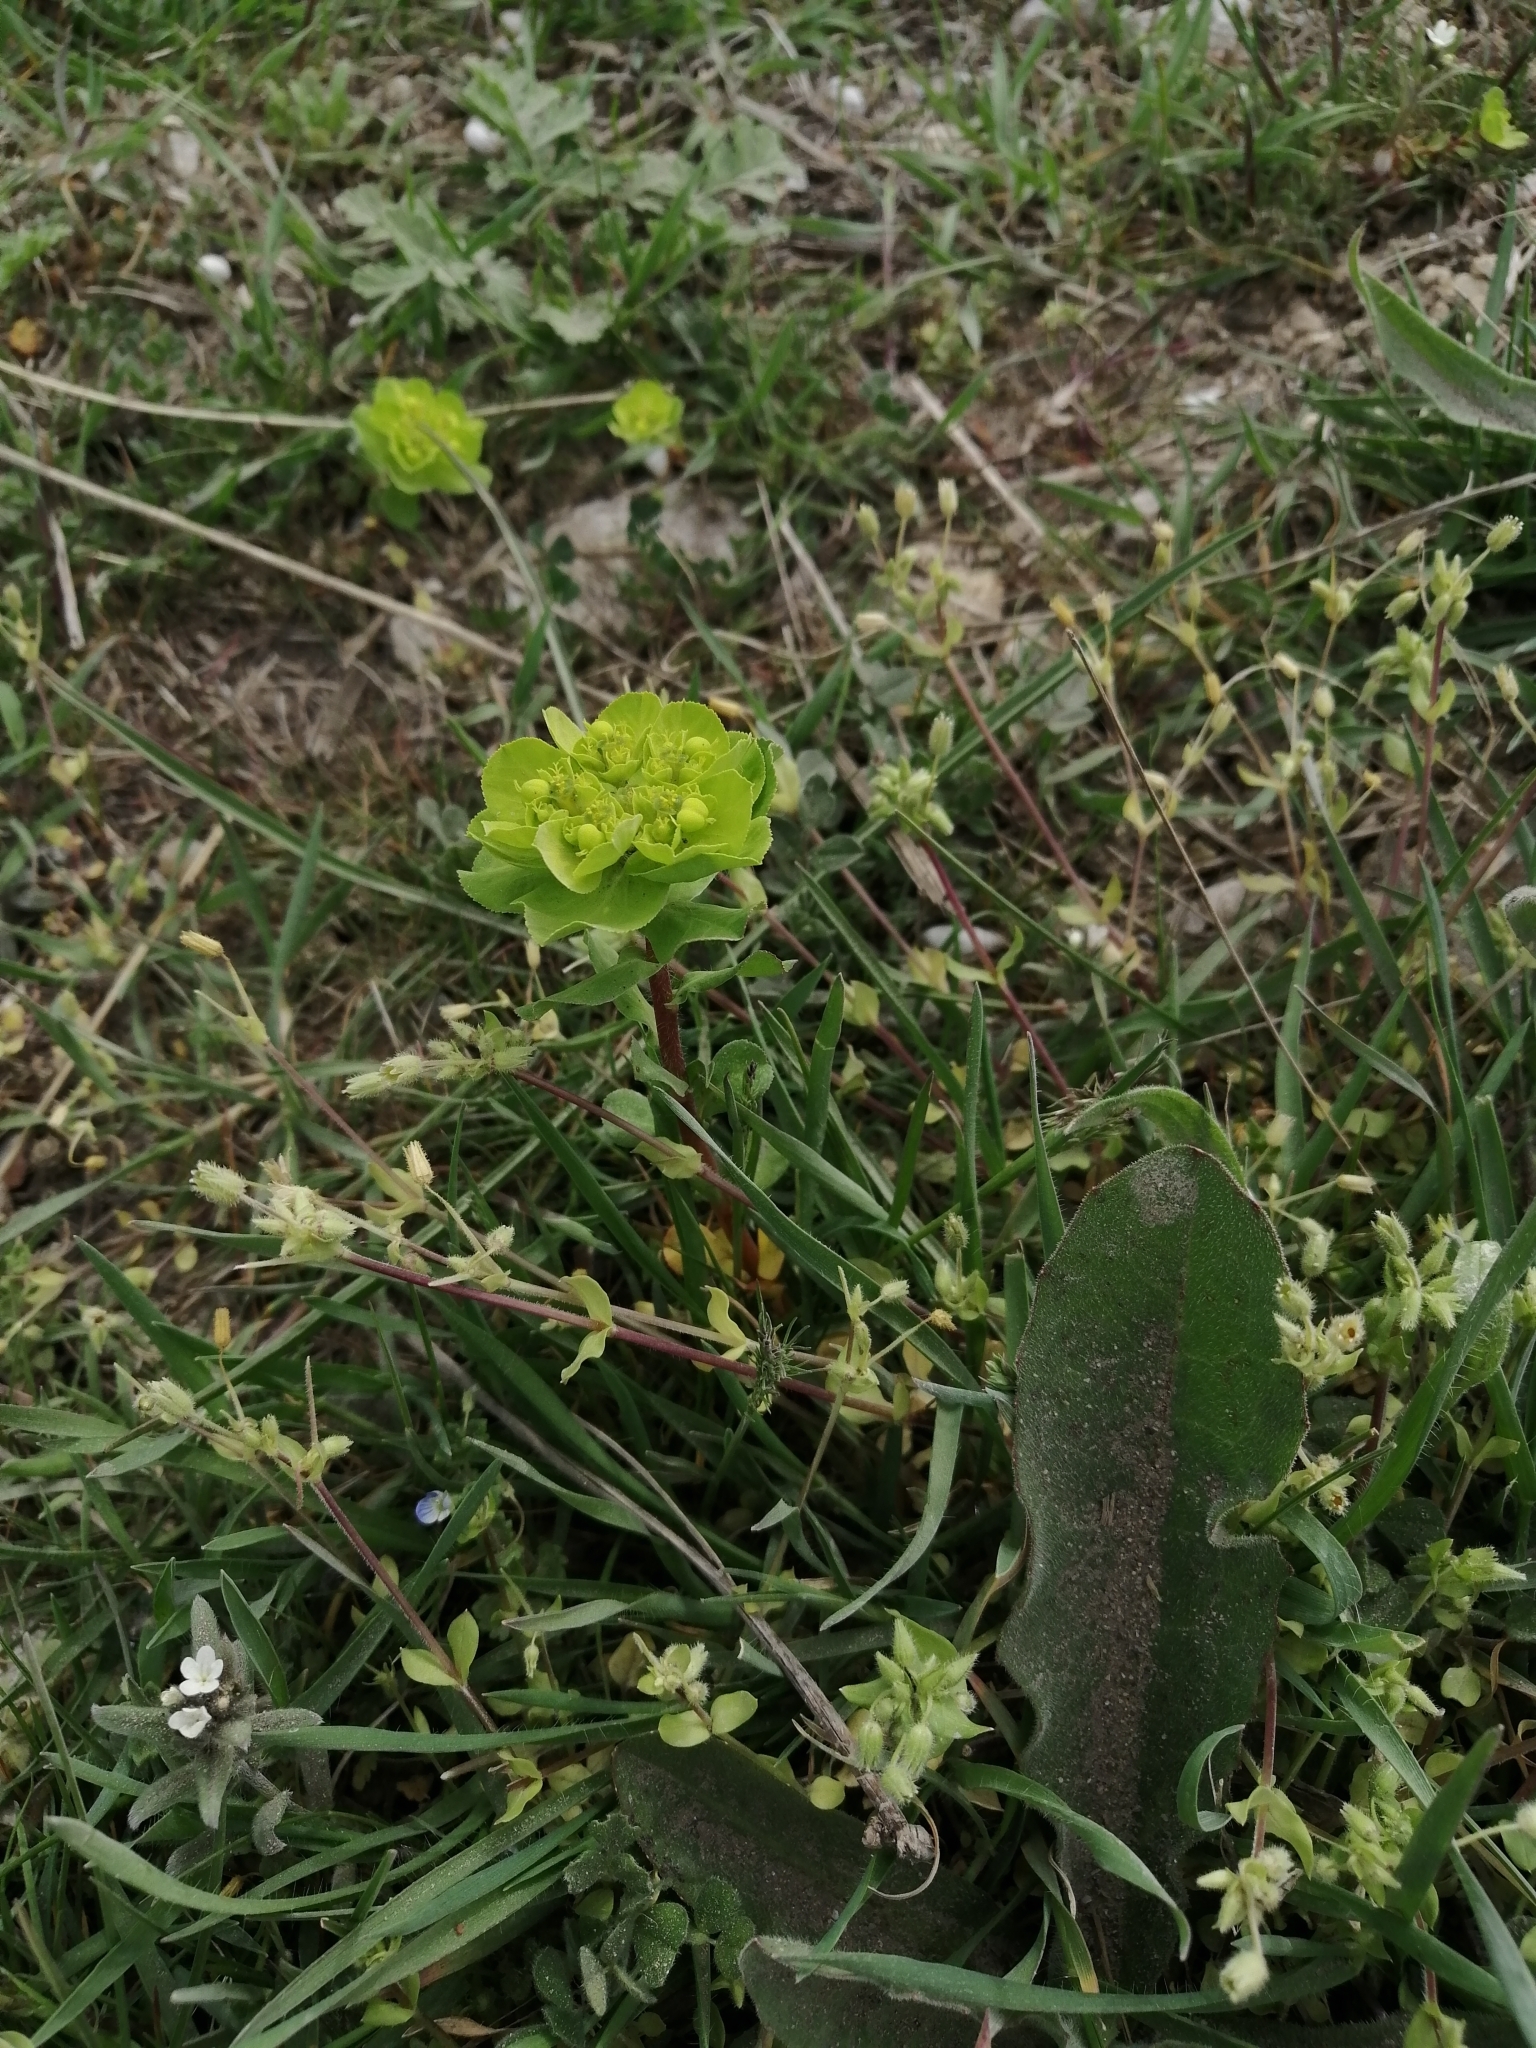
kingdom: Plantae
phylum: Tracheophyta
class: Magnoliopsida
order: Malpighiales
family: Euphorbiaceae
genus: Euphorbia
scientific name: Euphorbia helioscopia
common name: Sun spurge
